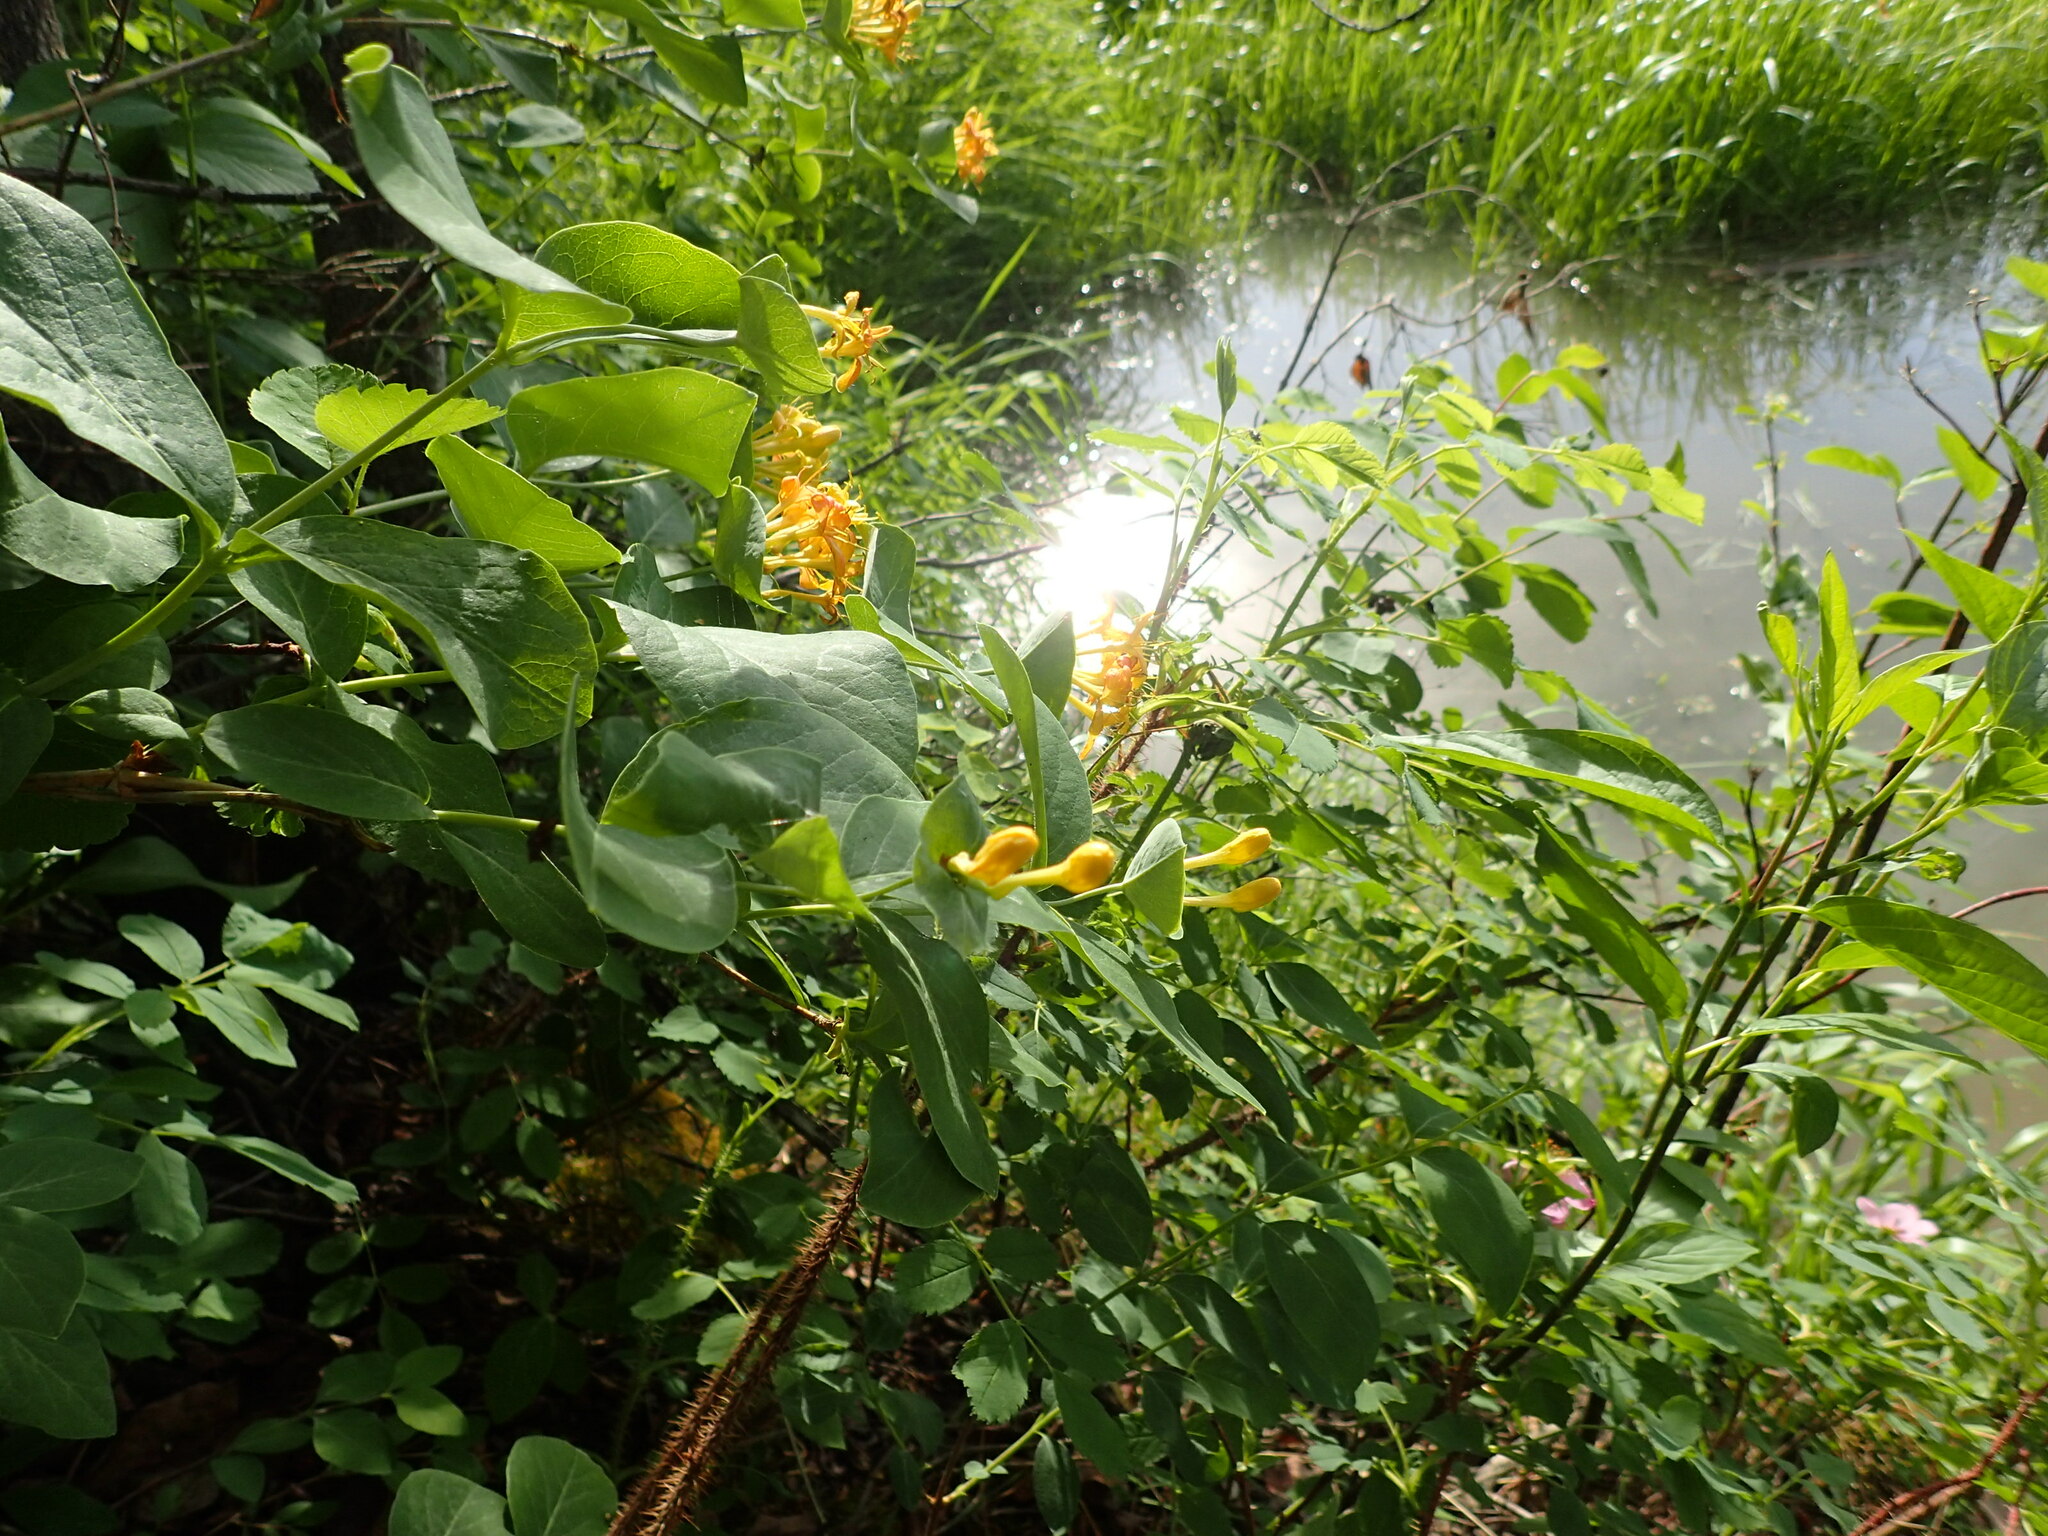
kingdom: Plantae
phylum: Tracheophyta
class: Magnoliopsida
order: Dipsacales
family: Caprifoliaceae
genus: Lonicera
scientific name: Lonicera dioica
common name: Limber honeysuckle
